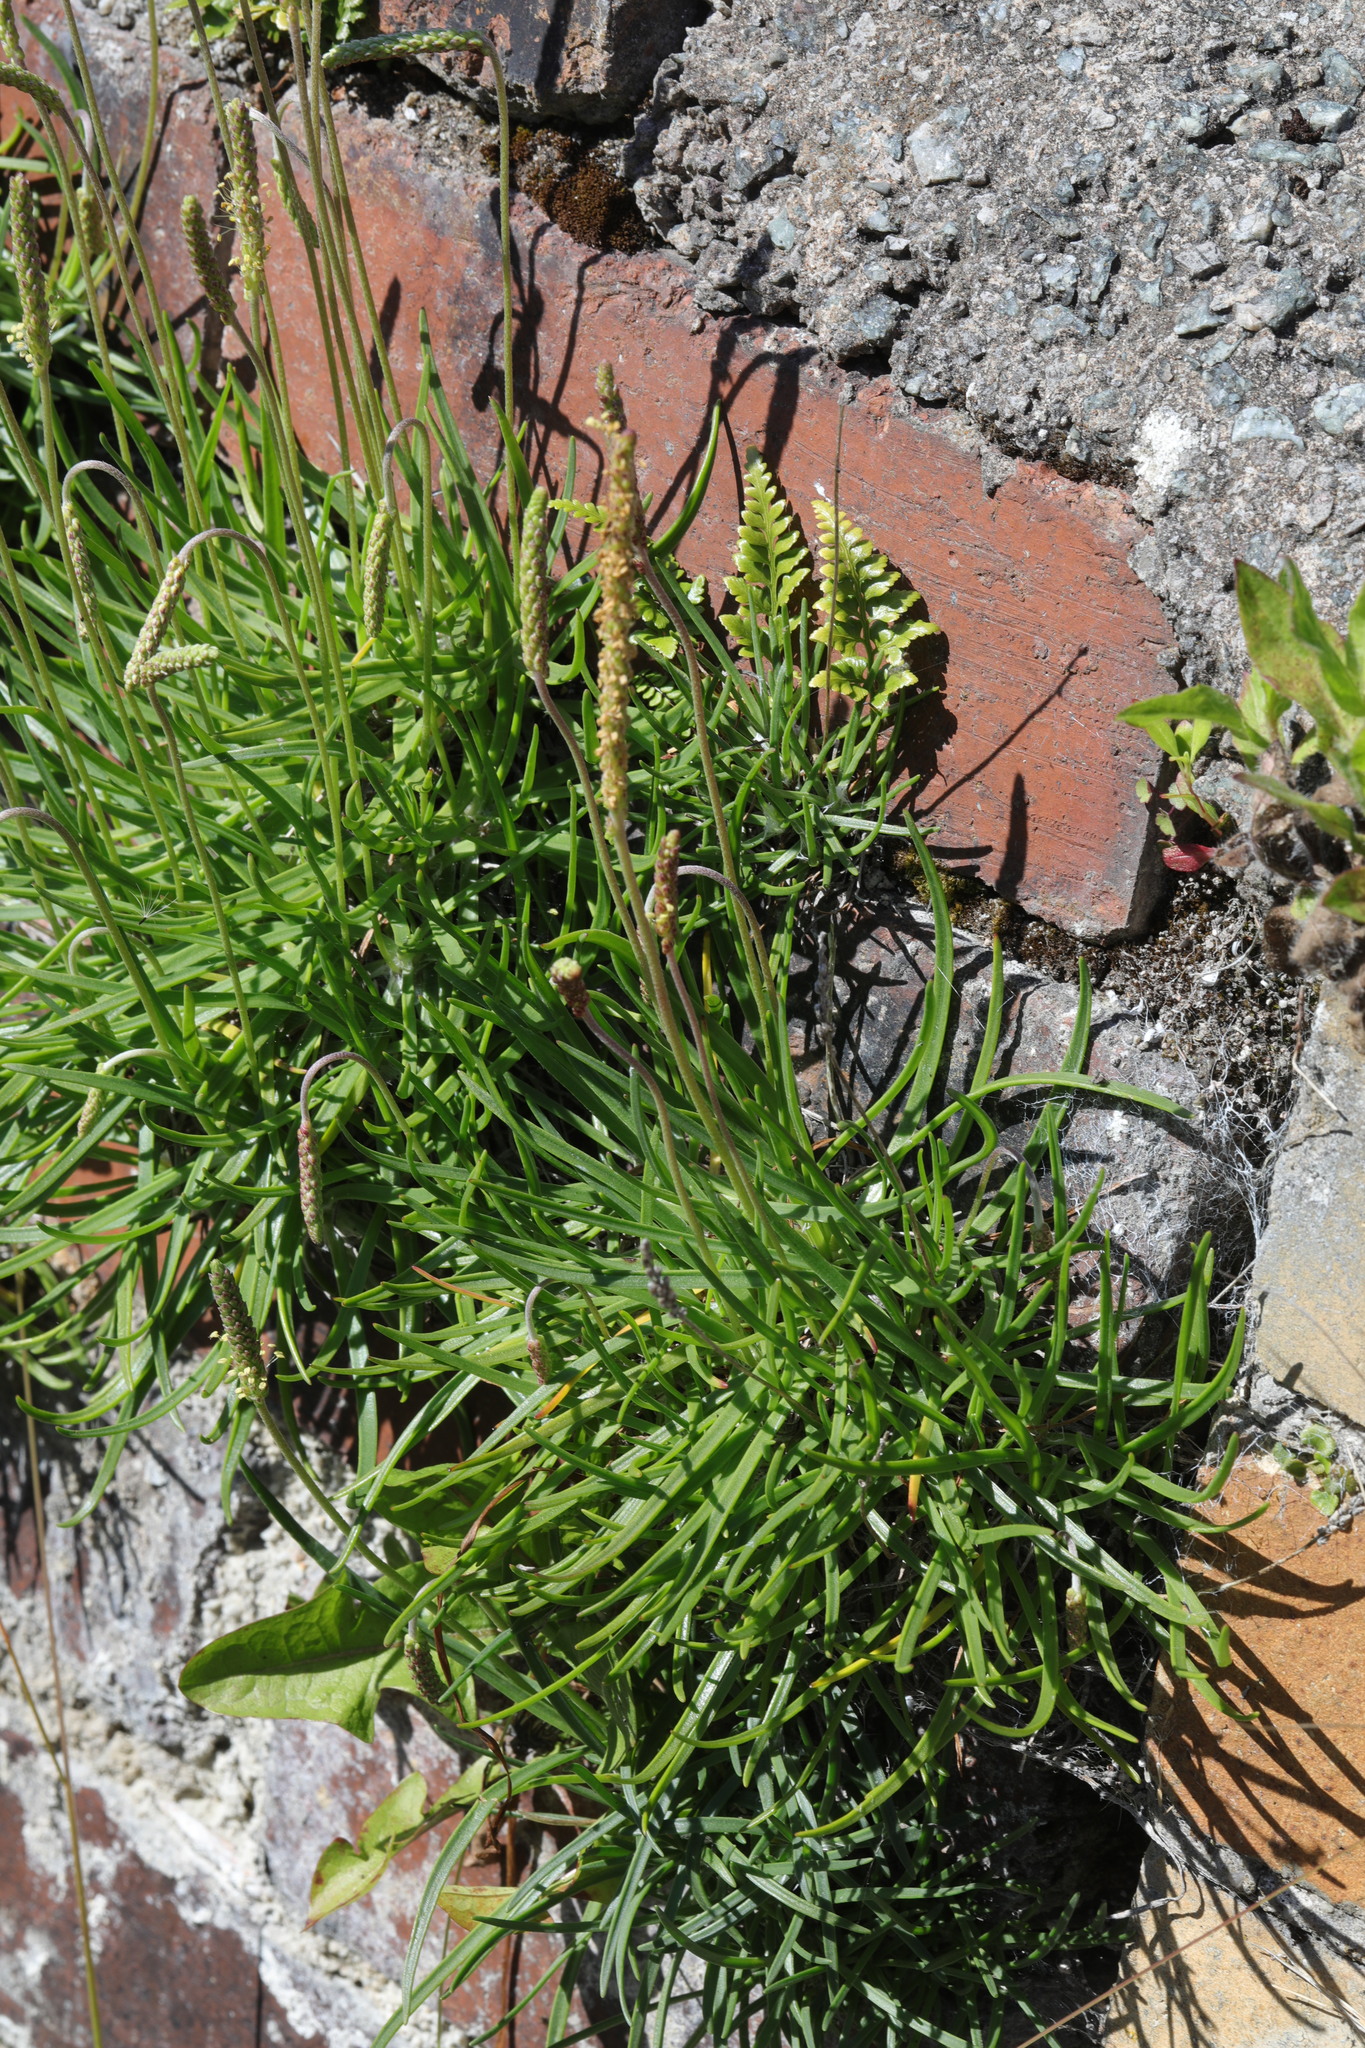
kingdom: Plantae
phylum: Tracheophyta
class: Magnoliopsida
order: Lamiales
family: Plantaginaceae
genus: Plantago
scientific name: Plantago maritima
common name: Sea plantain
